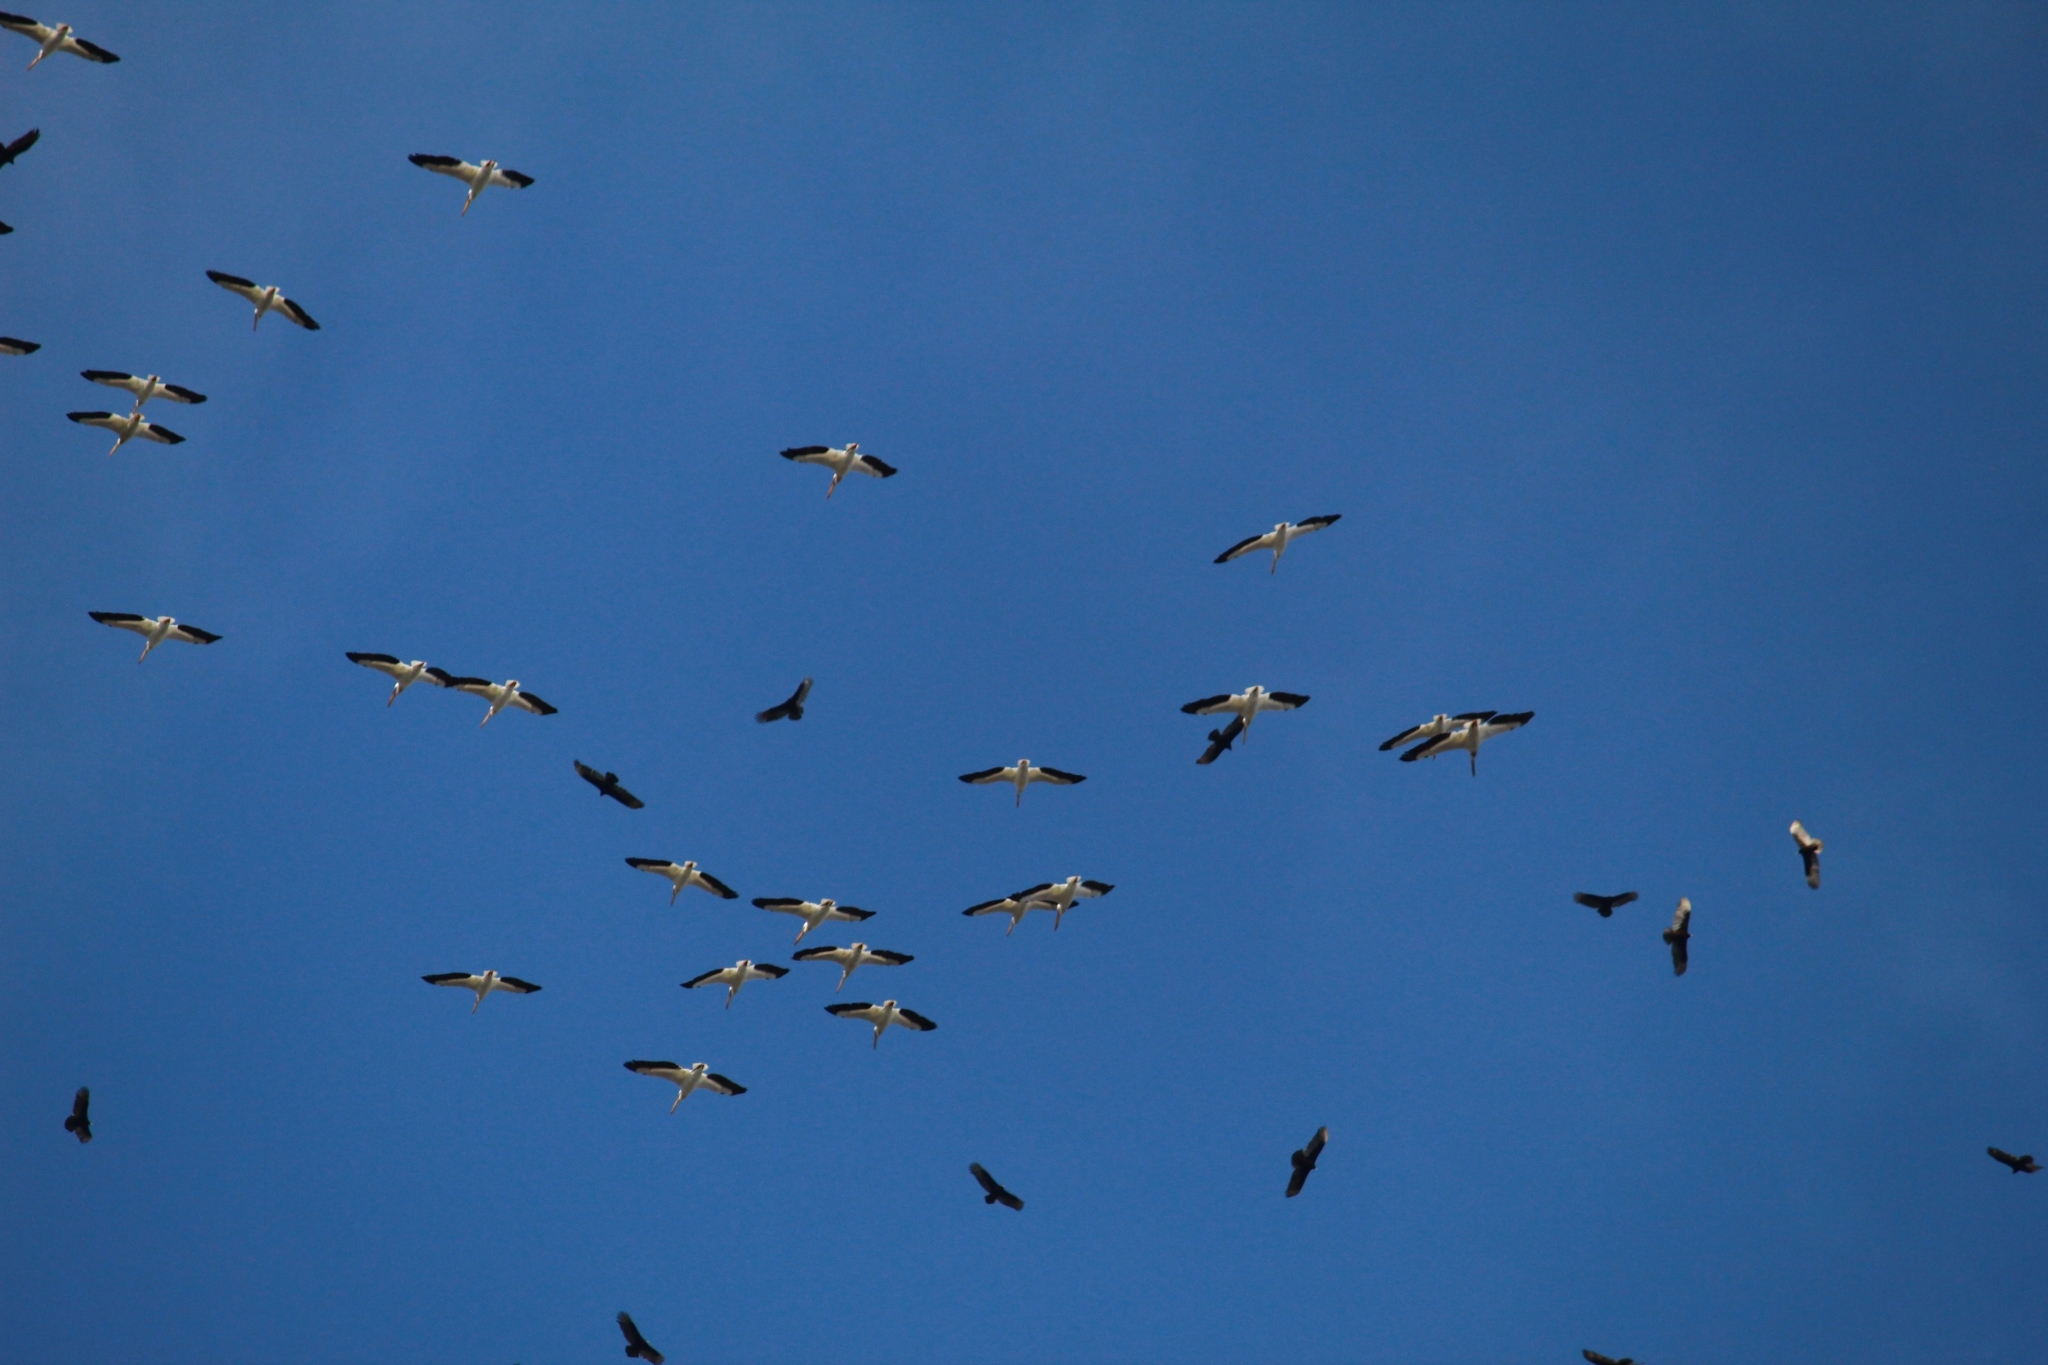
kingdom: Animalia
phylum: Chordata
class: Aves
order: Pelecaniformes
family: Pelecanidae
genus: Pelecanus
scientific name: Pelecanus erythrorhynchos
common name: American white pelican
